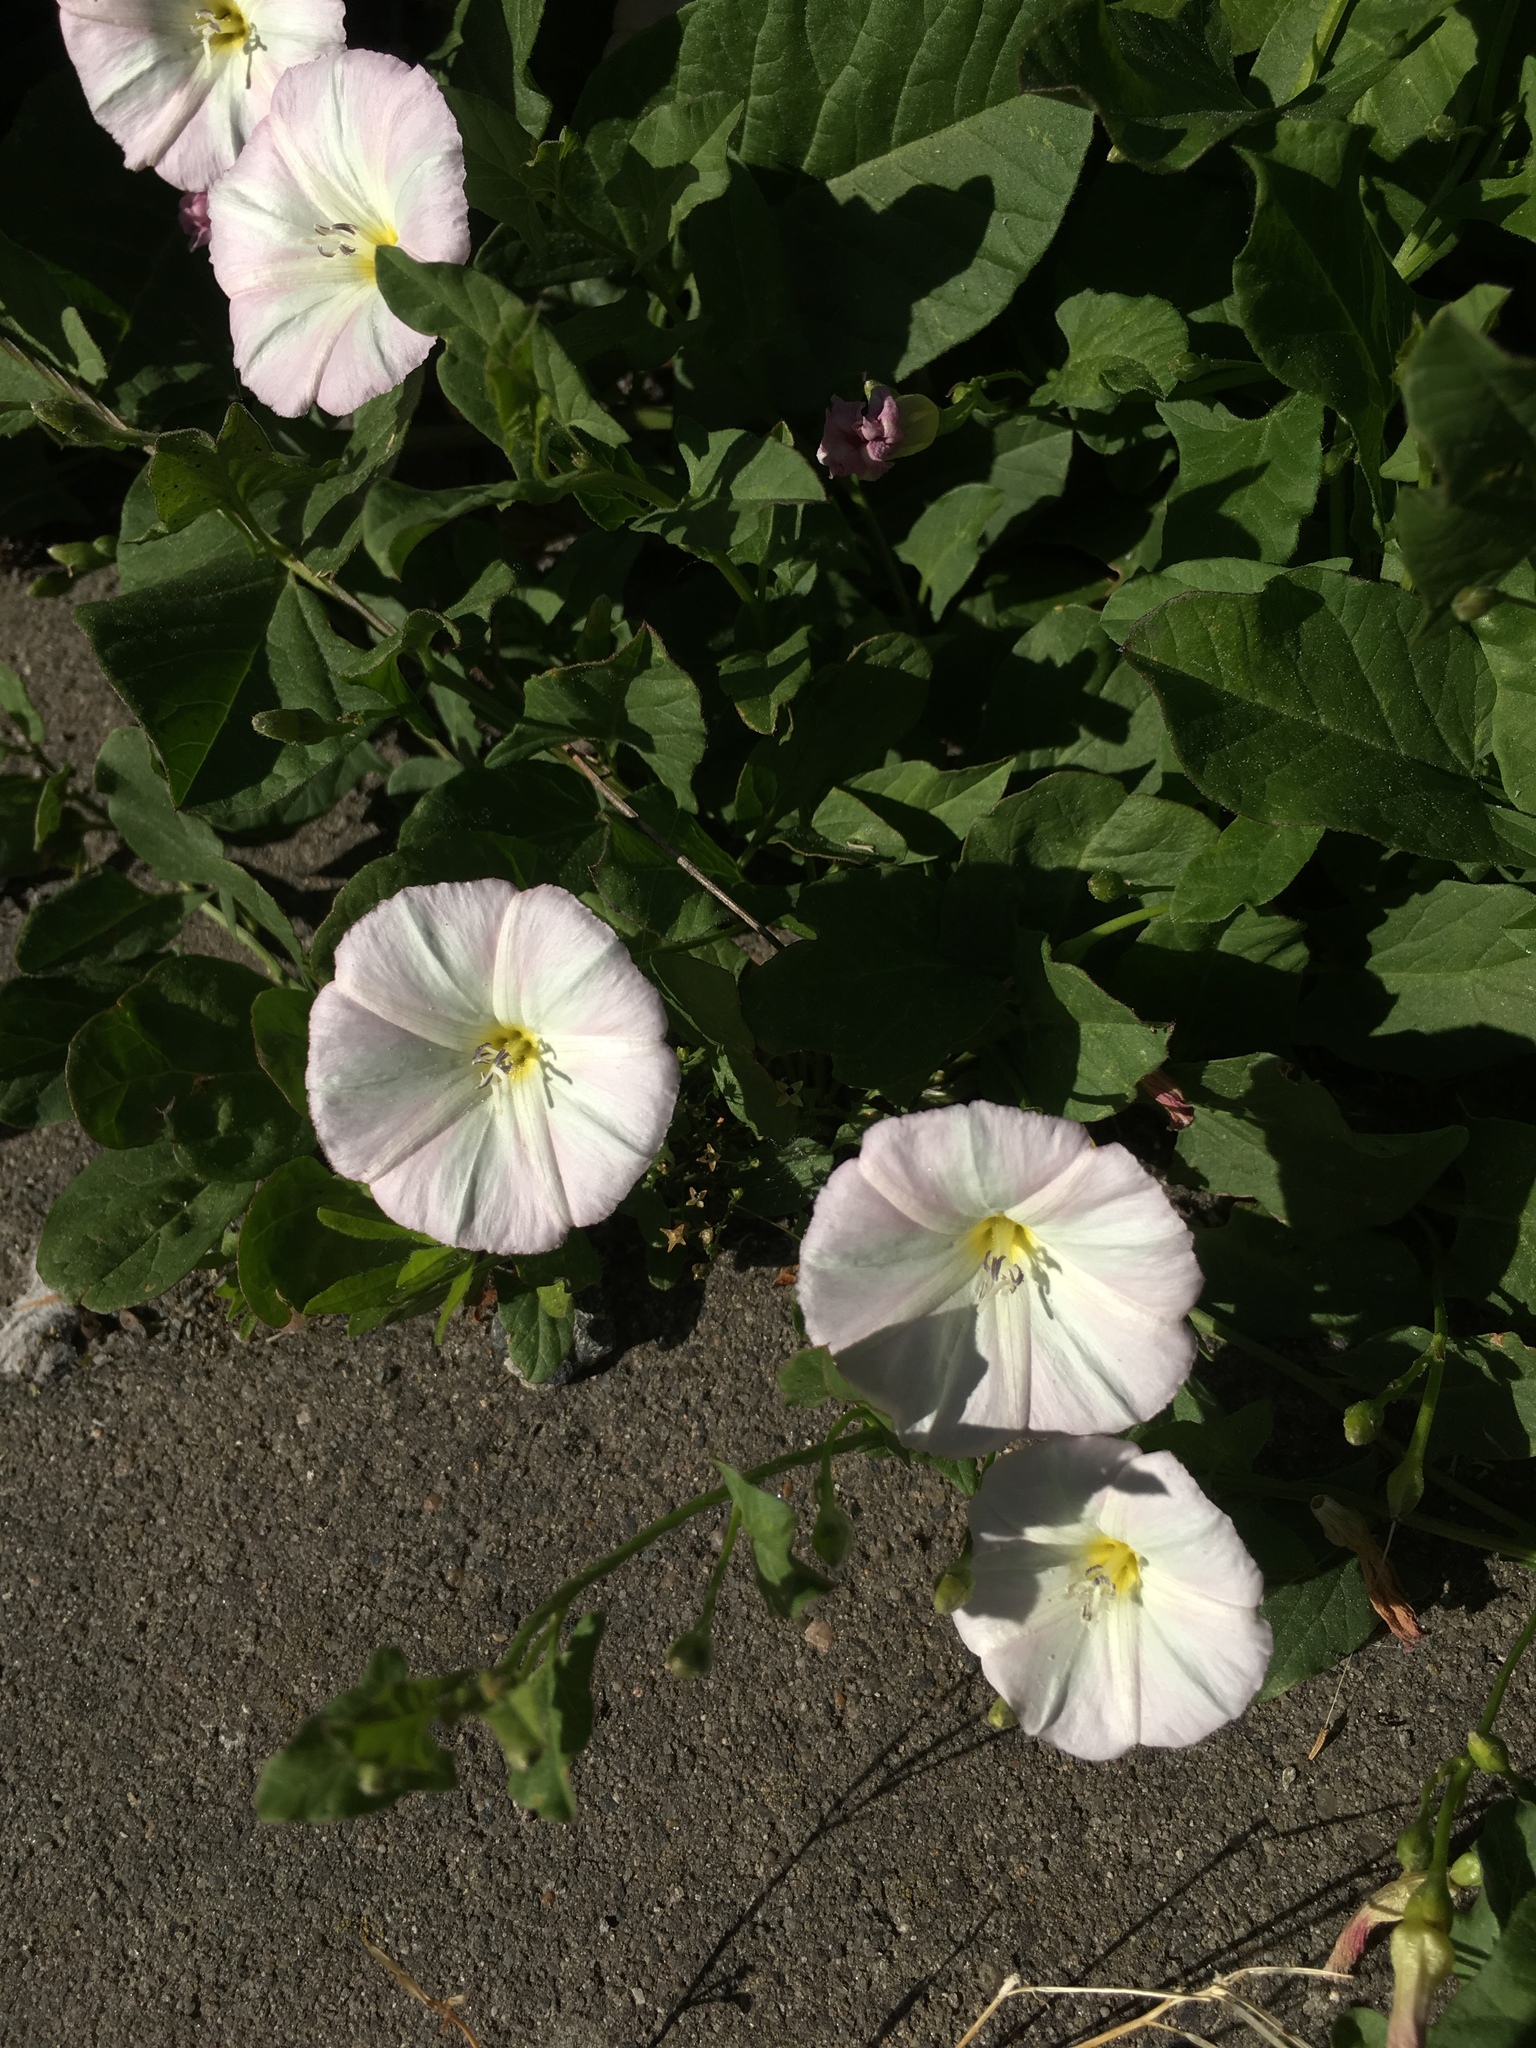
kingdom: Plantae
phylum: Tracheophyta
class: Magnoliopsida
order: Solanales
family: Convolvulaceae
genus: Convolvulus
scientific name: Convolvulus arvensis
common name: Field bindweed
